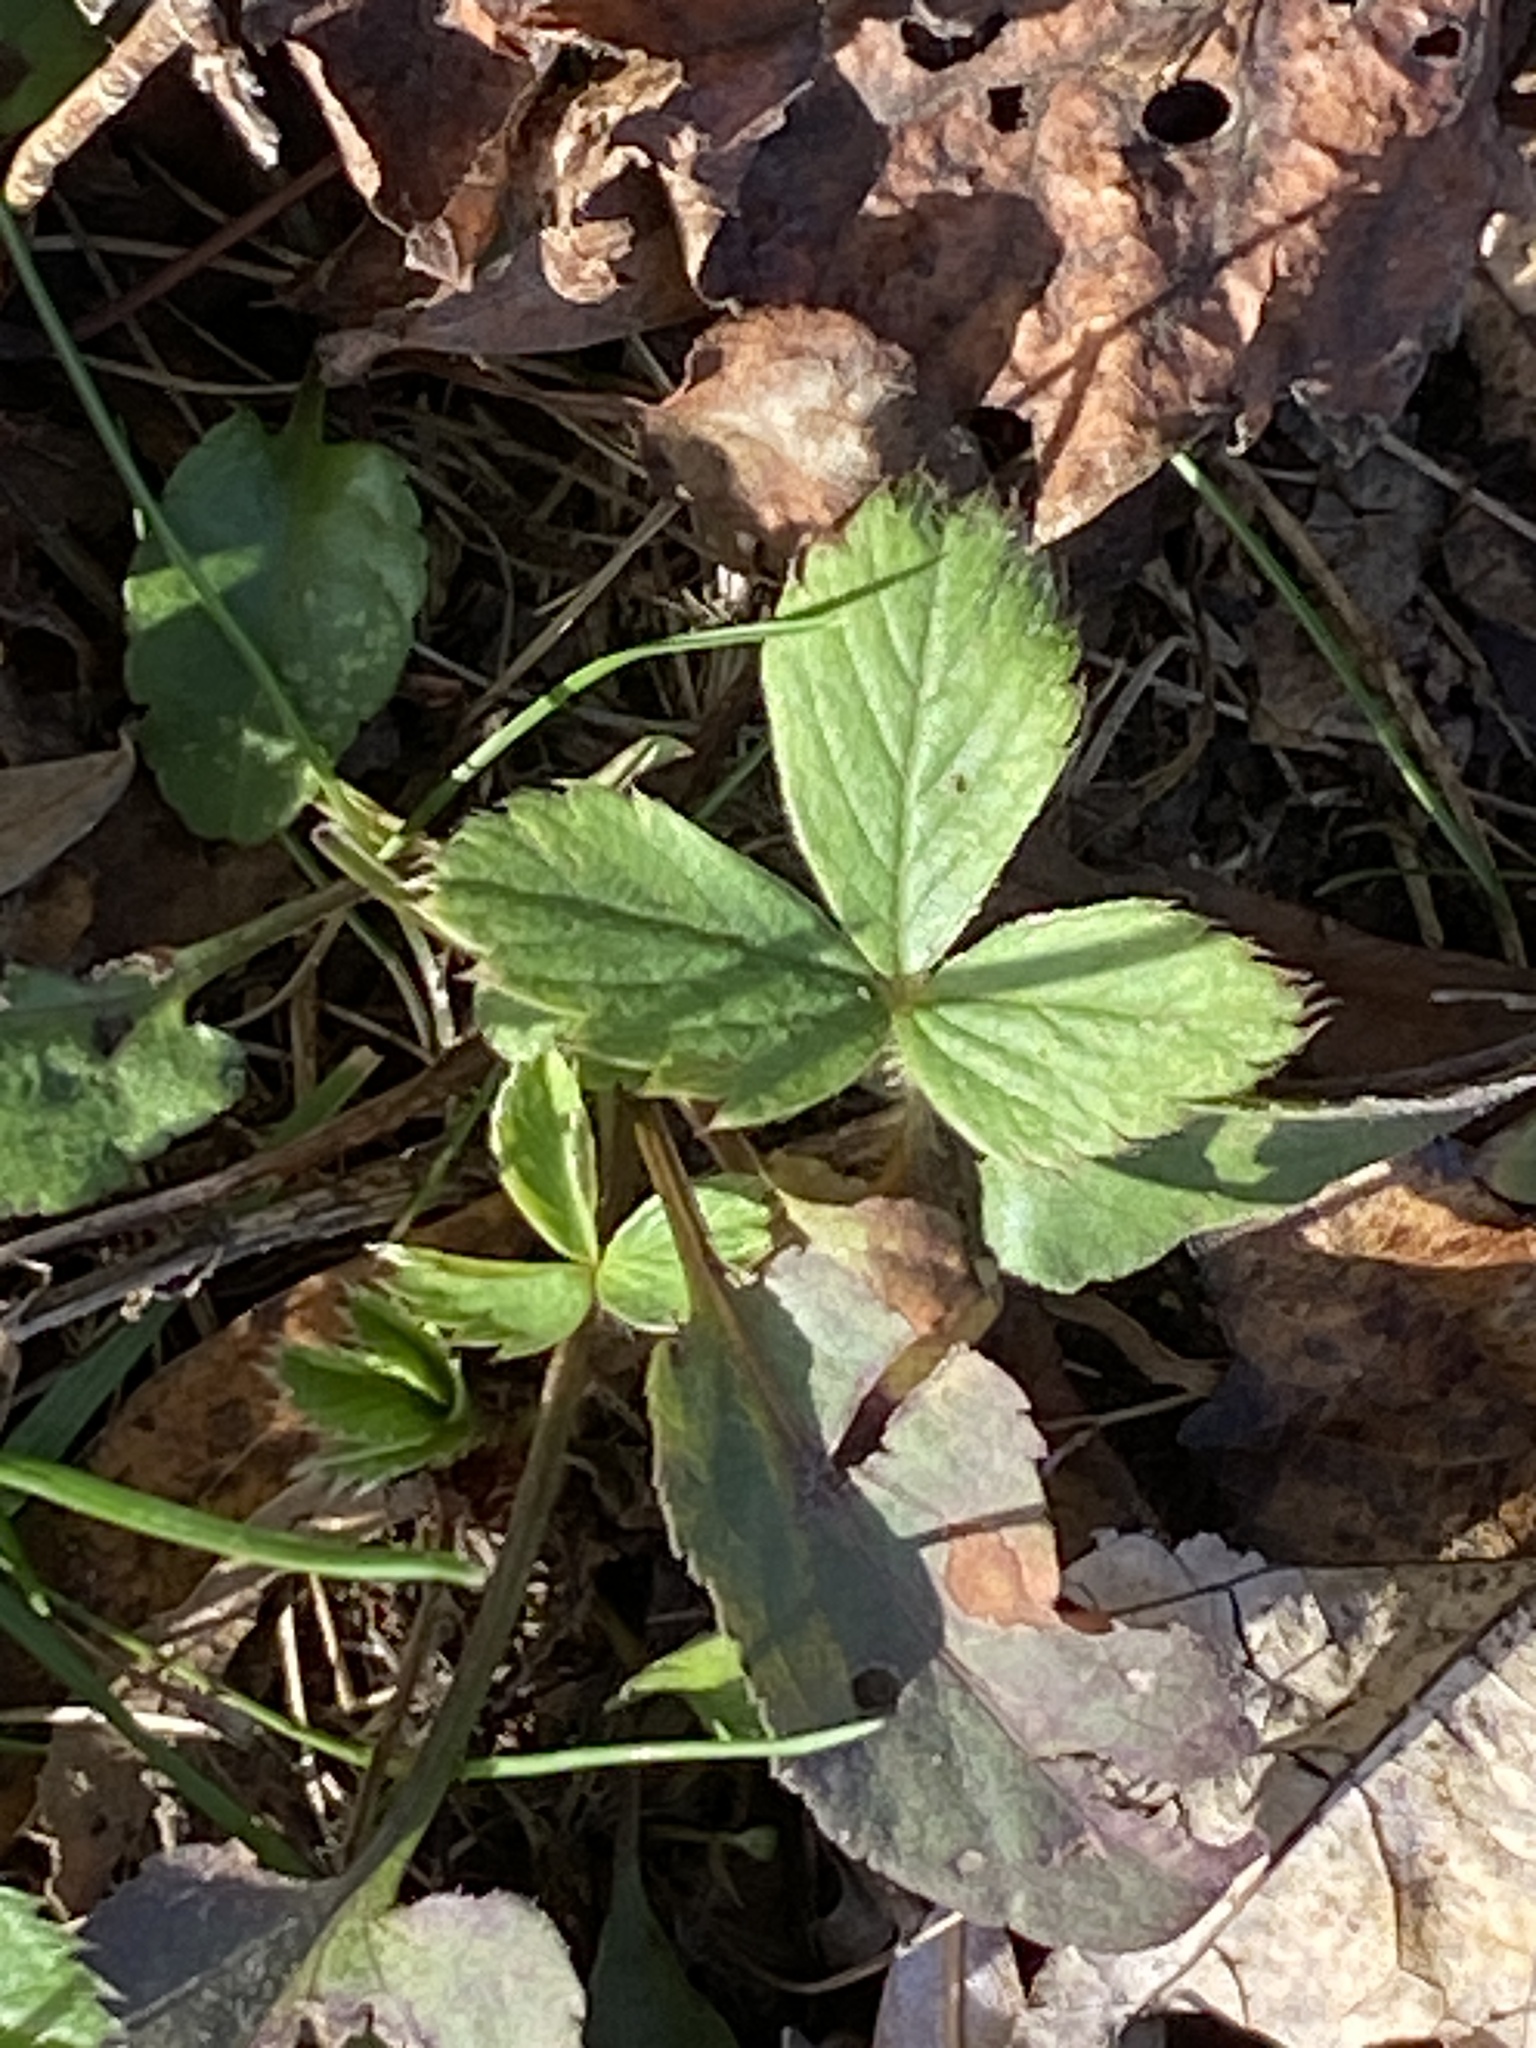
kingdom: Plantae
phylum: Tracheophyta
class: Magnoliopsida
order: Rosales
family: Rosaceae
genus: Fragaria
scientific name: Fragaria virginiana
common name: Thickleaved wild strawberry
